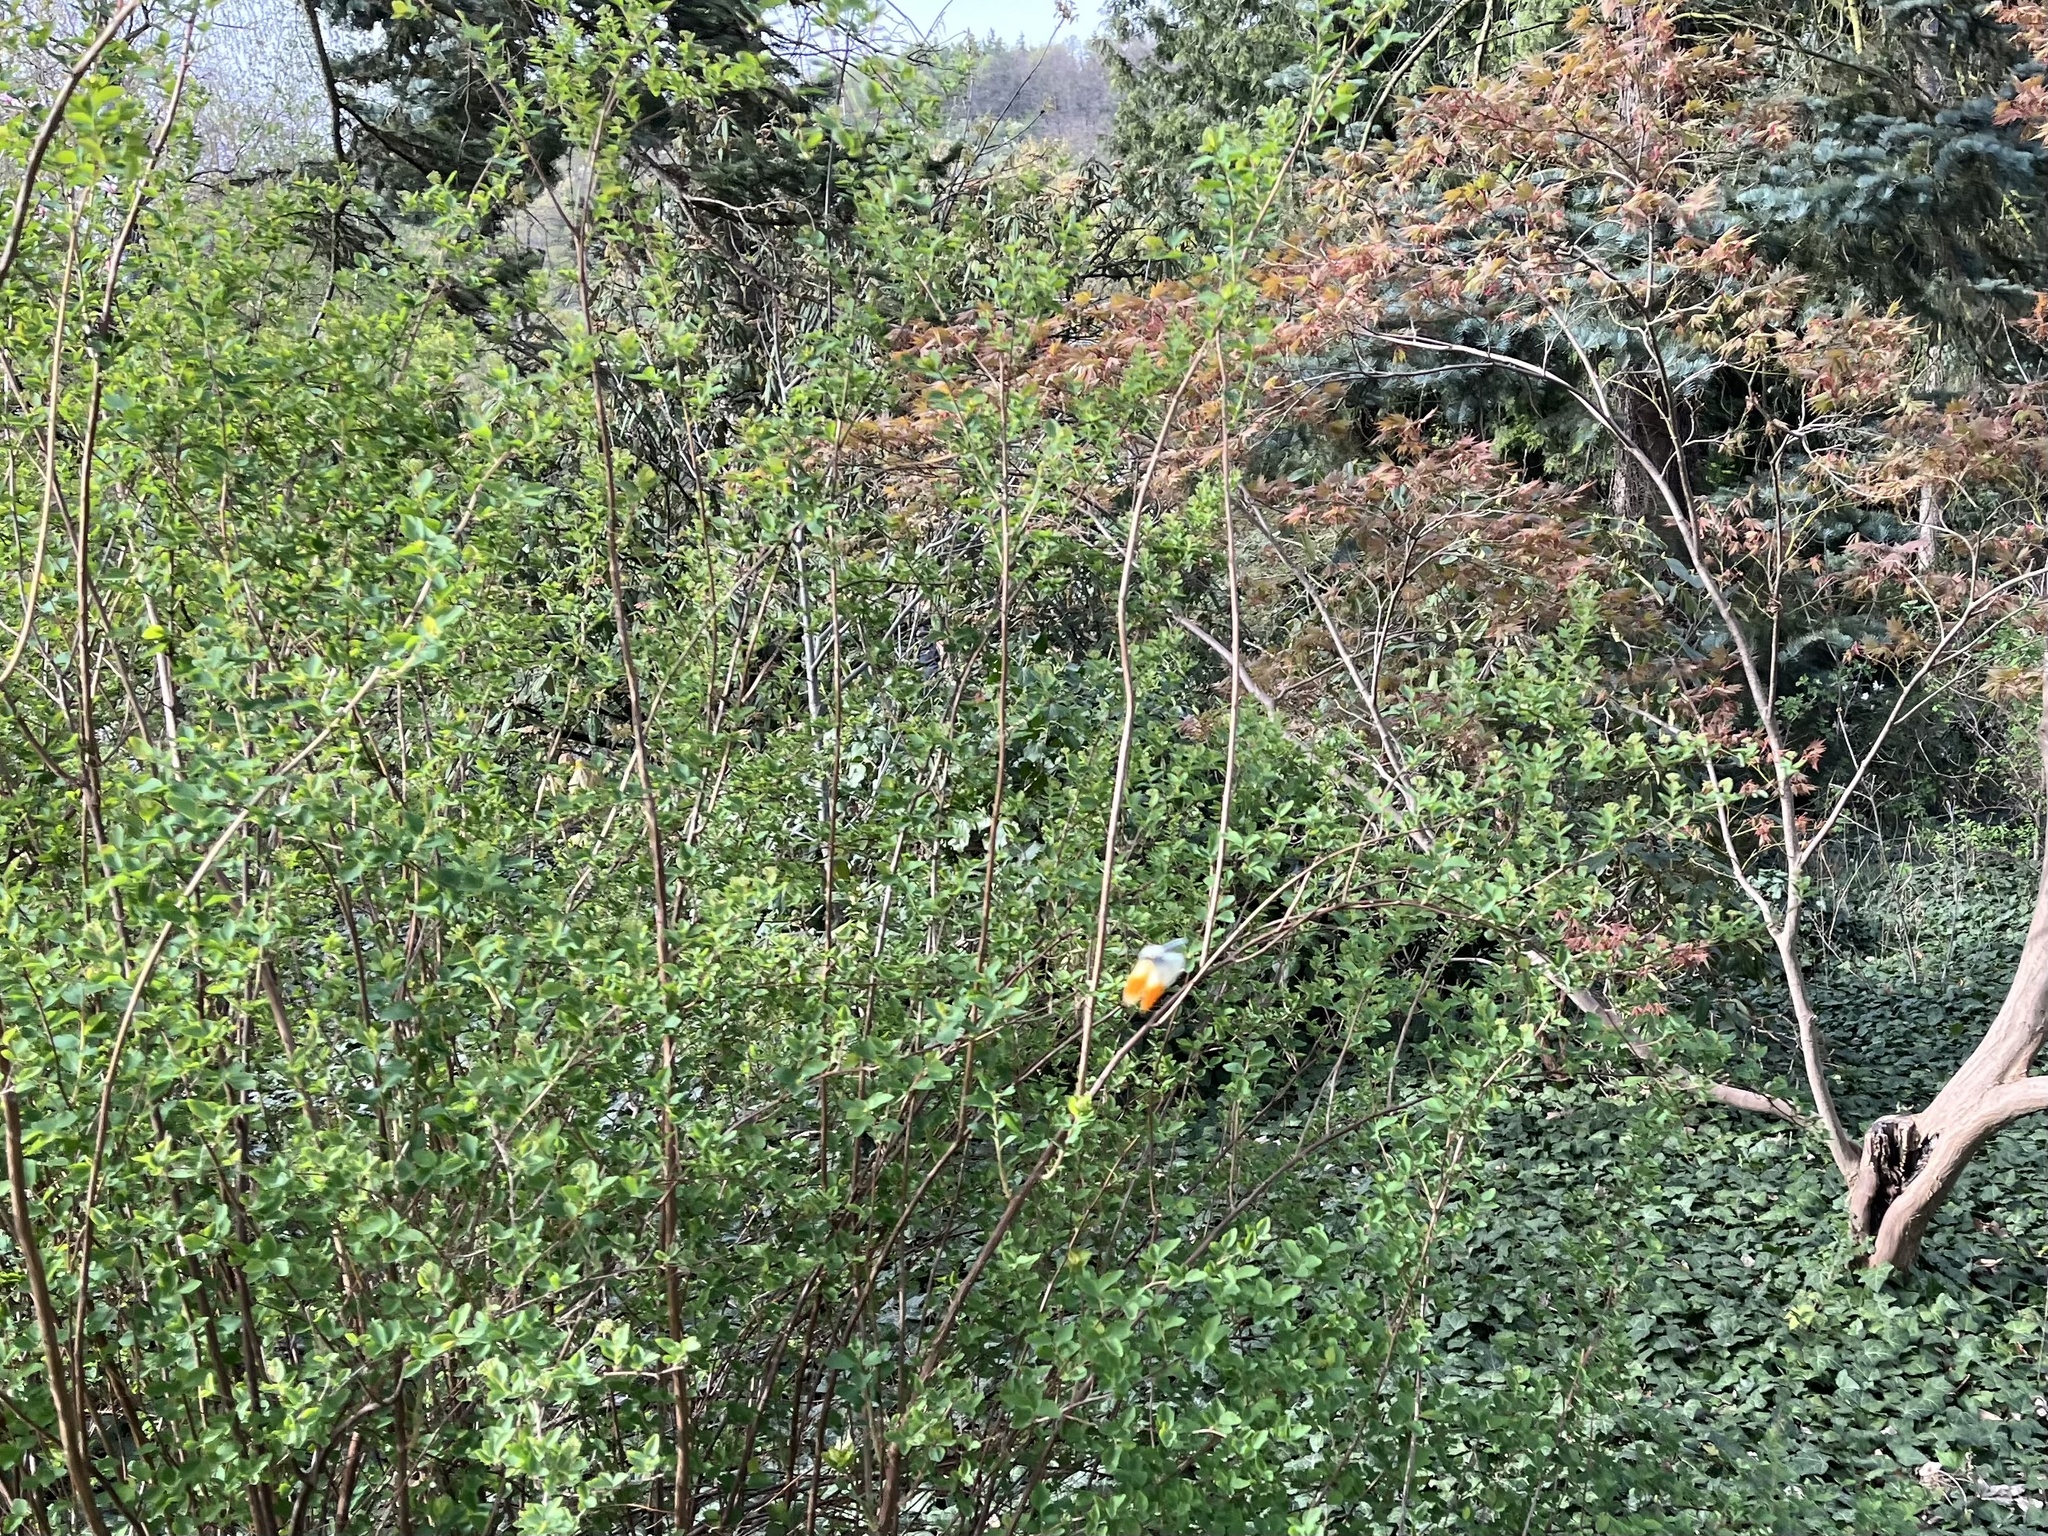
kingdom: Animalia
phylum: Arthropoda
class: Insecta
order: Lepidoptera
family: Pieridae
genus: Anthocharis
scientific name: Anthocharis cardamines
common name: Orange-tip
